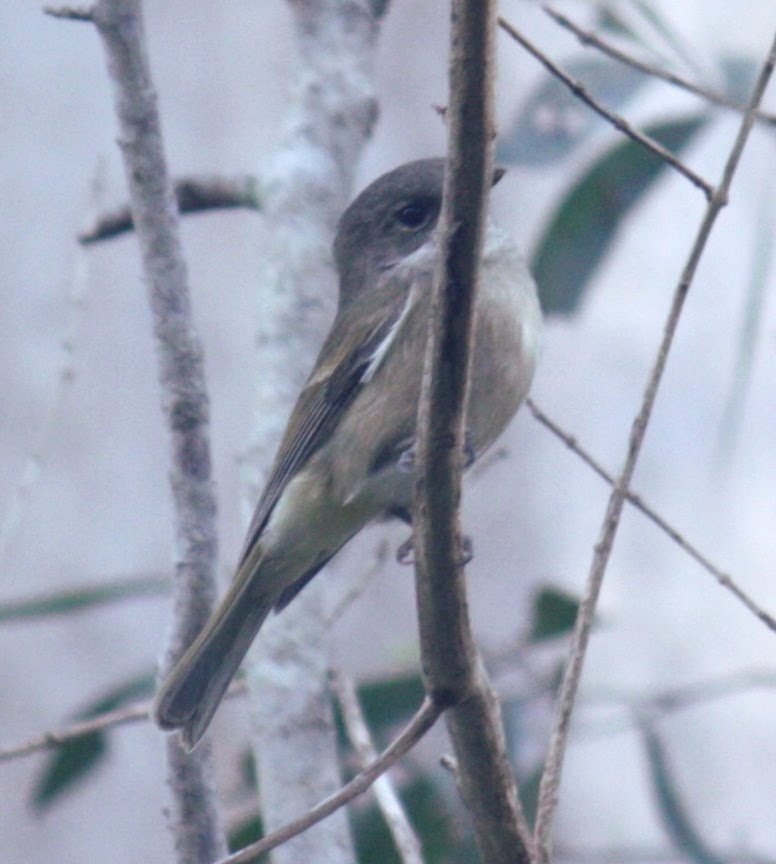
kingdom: Animalia
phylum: Chordata
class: Aves
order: Passeriformes
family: Pachycephalidae
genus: Pachycephala
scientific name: Pachycephala pectoralis
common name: Australian golden whistler
